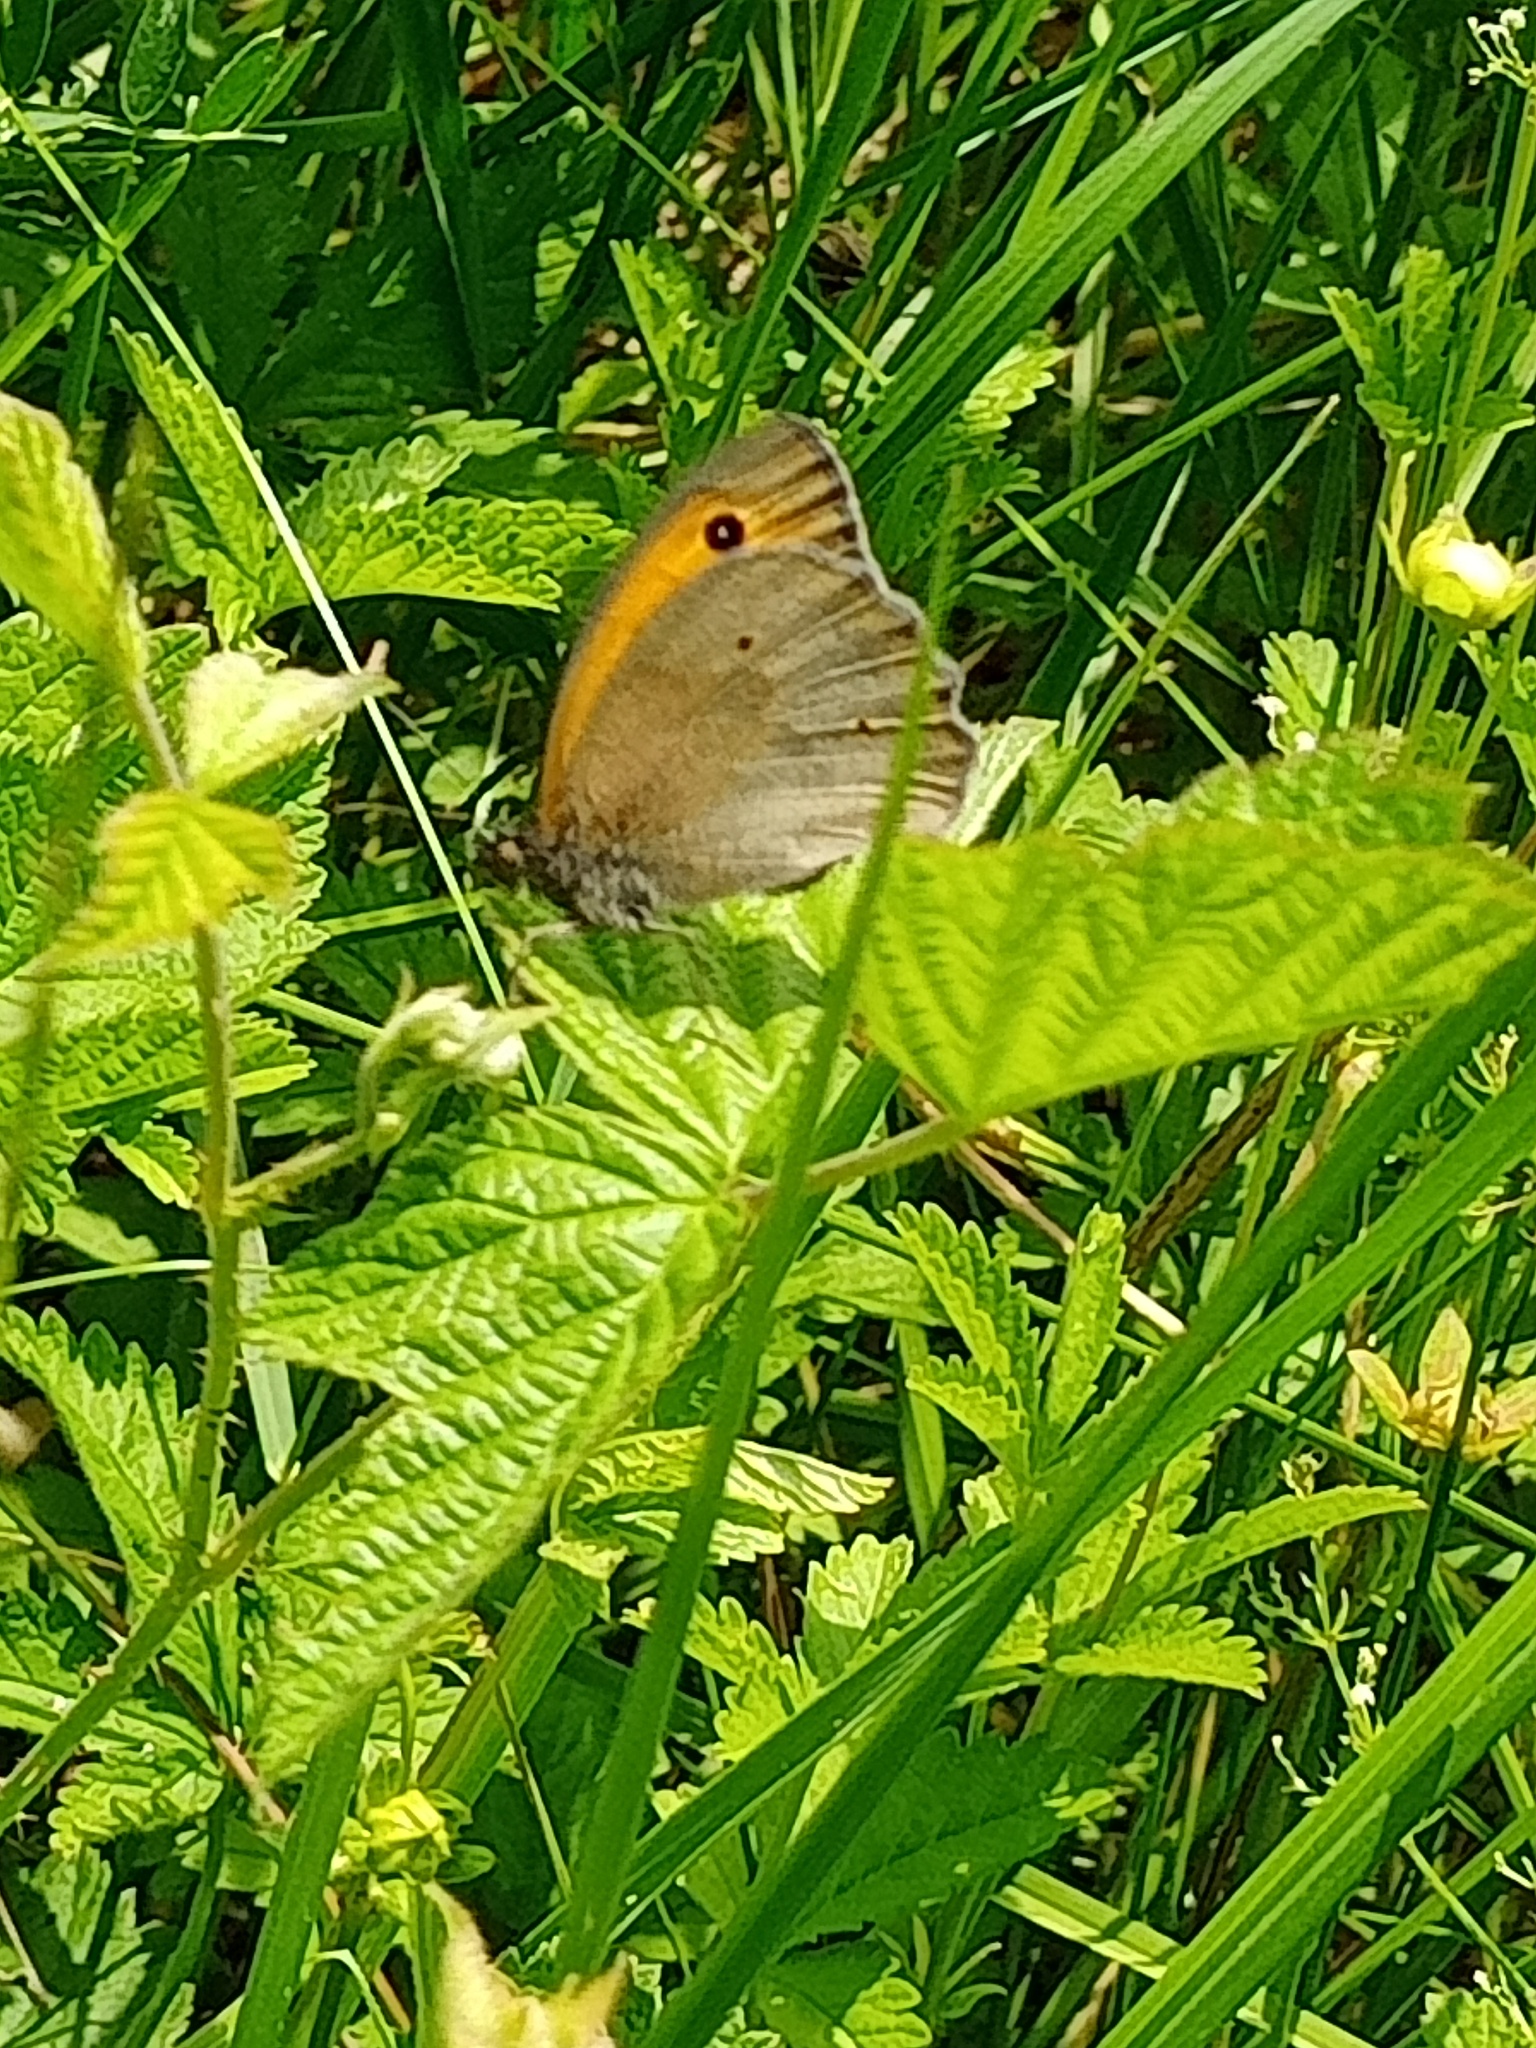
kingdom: Animalia
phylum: Arthropoda
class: Insecta
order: Lepidoptera
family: Nymphalidae
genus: Maniola
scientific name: Maniola jurtina
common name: Meadow brown
